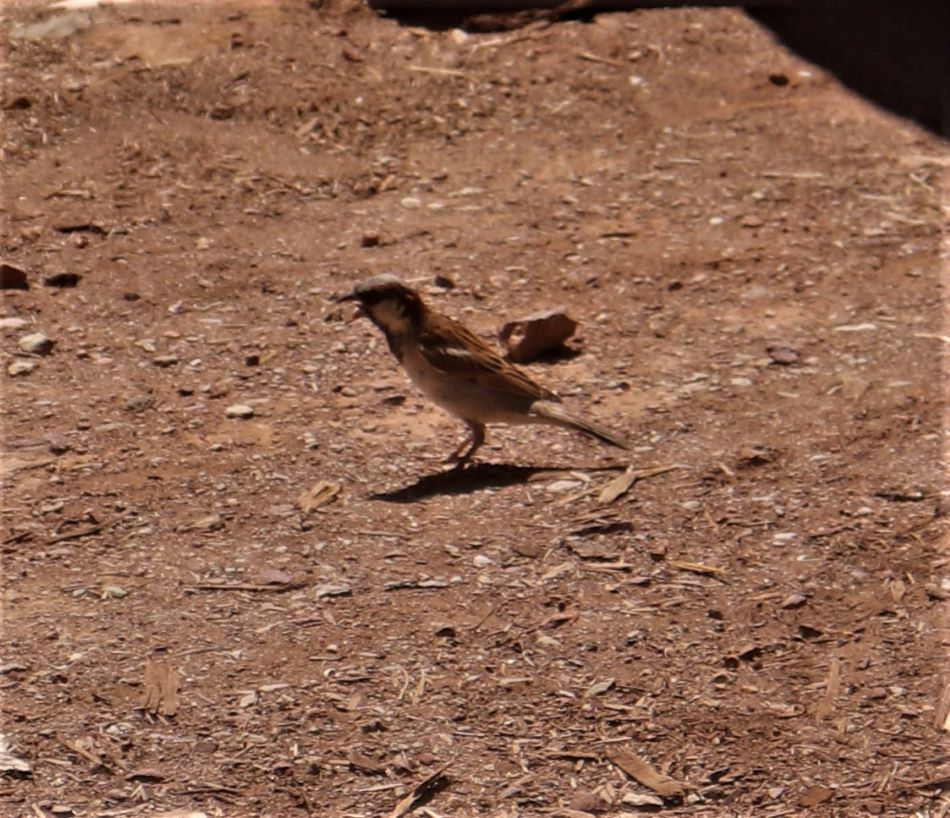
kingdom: Animalia
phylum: Chordata
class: Aves
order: Passeriformes
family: Passeridae
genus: Passer
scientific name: Passer domesticus
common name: House sparrow
